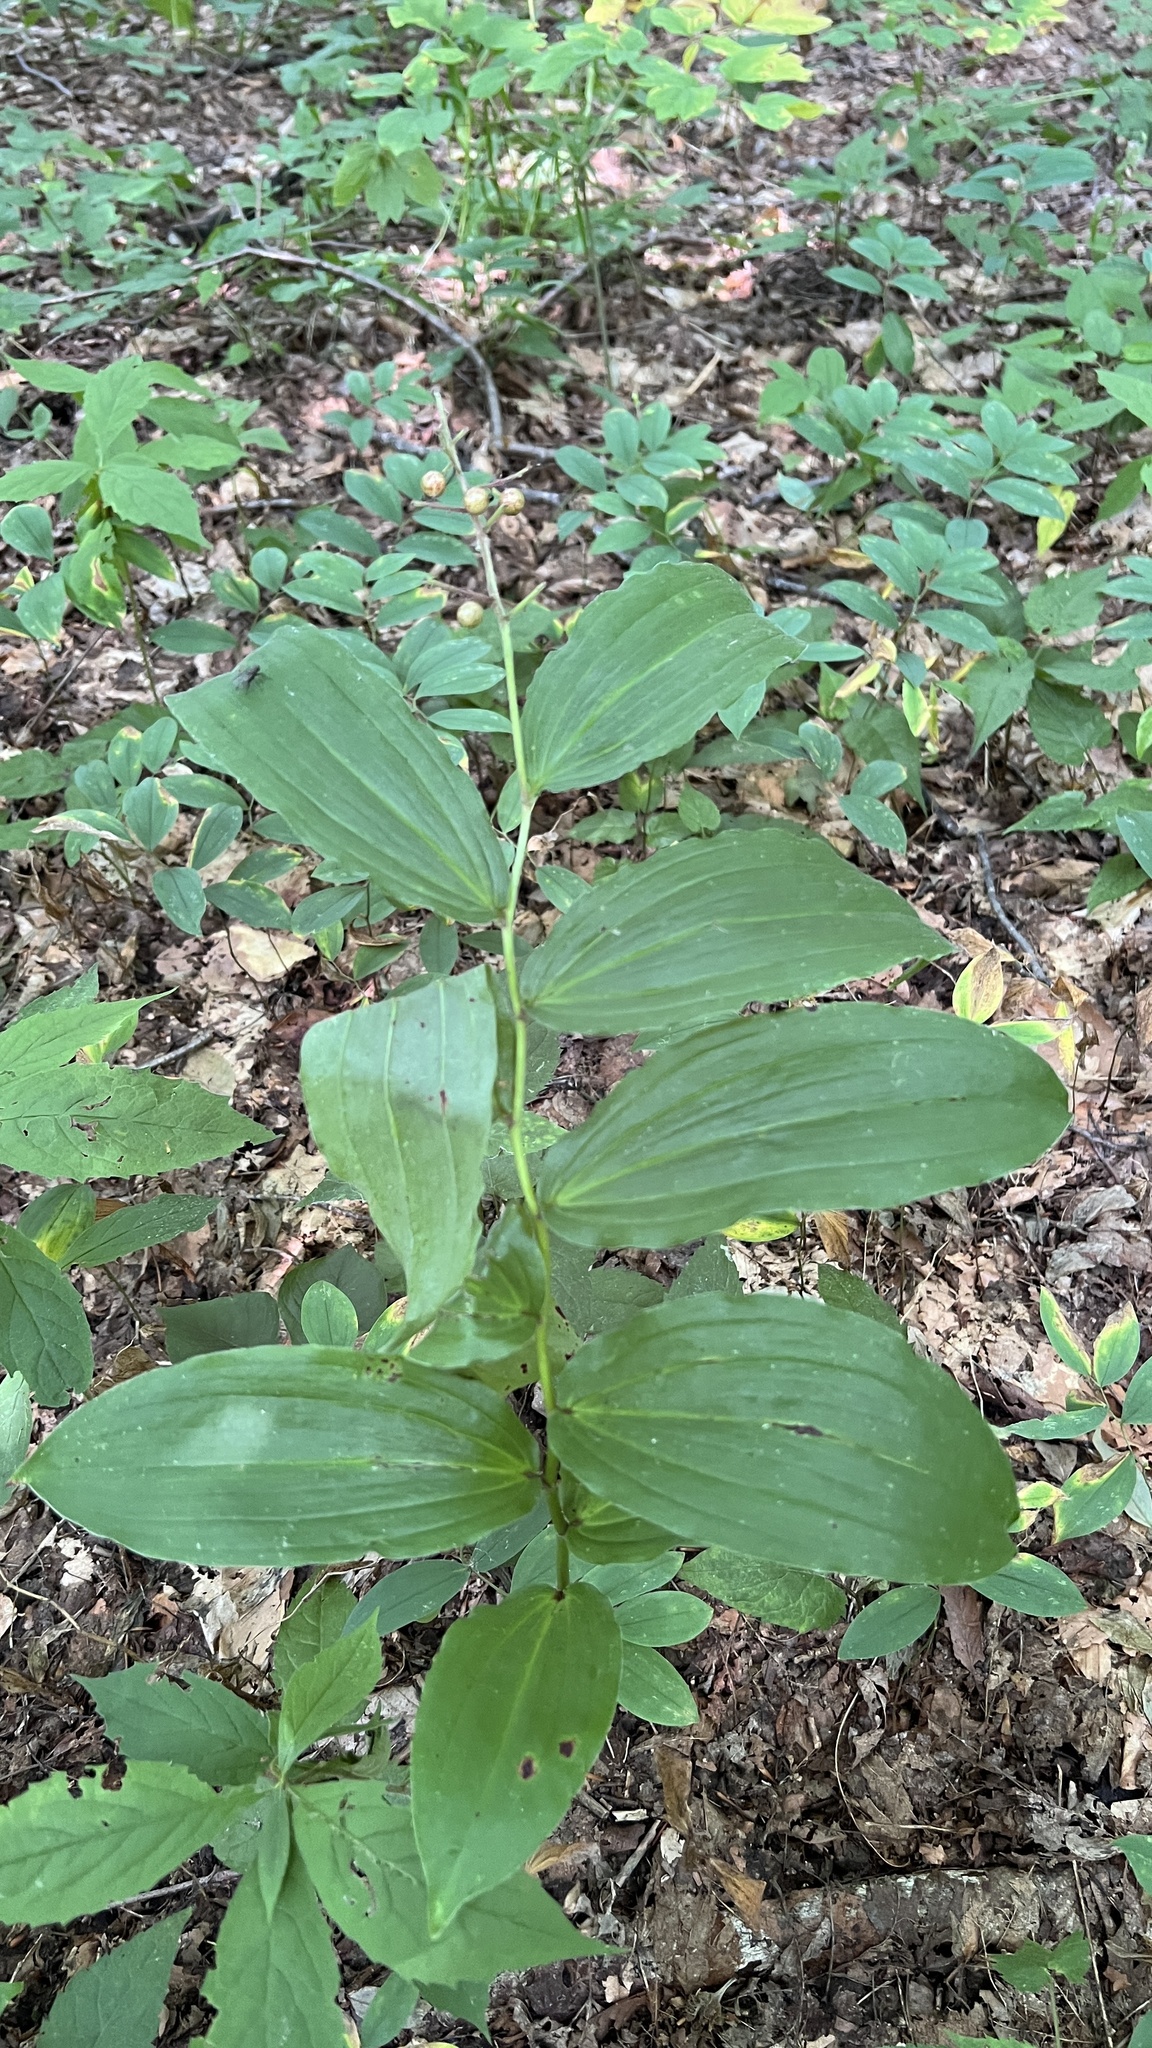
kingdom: Plantae
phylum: Tracheophyta
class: Liliopsida
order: Asparagales
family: Asparagaceae
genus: Maianthemum
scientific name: Maianthemum racemosum
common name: False spikenard
